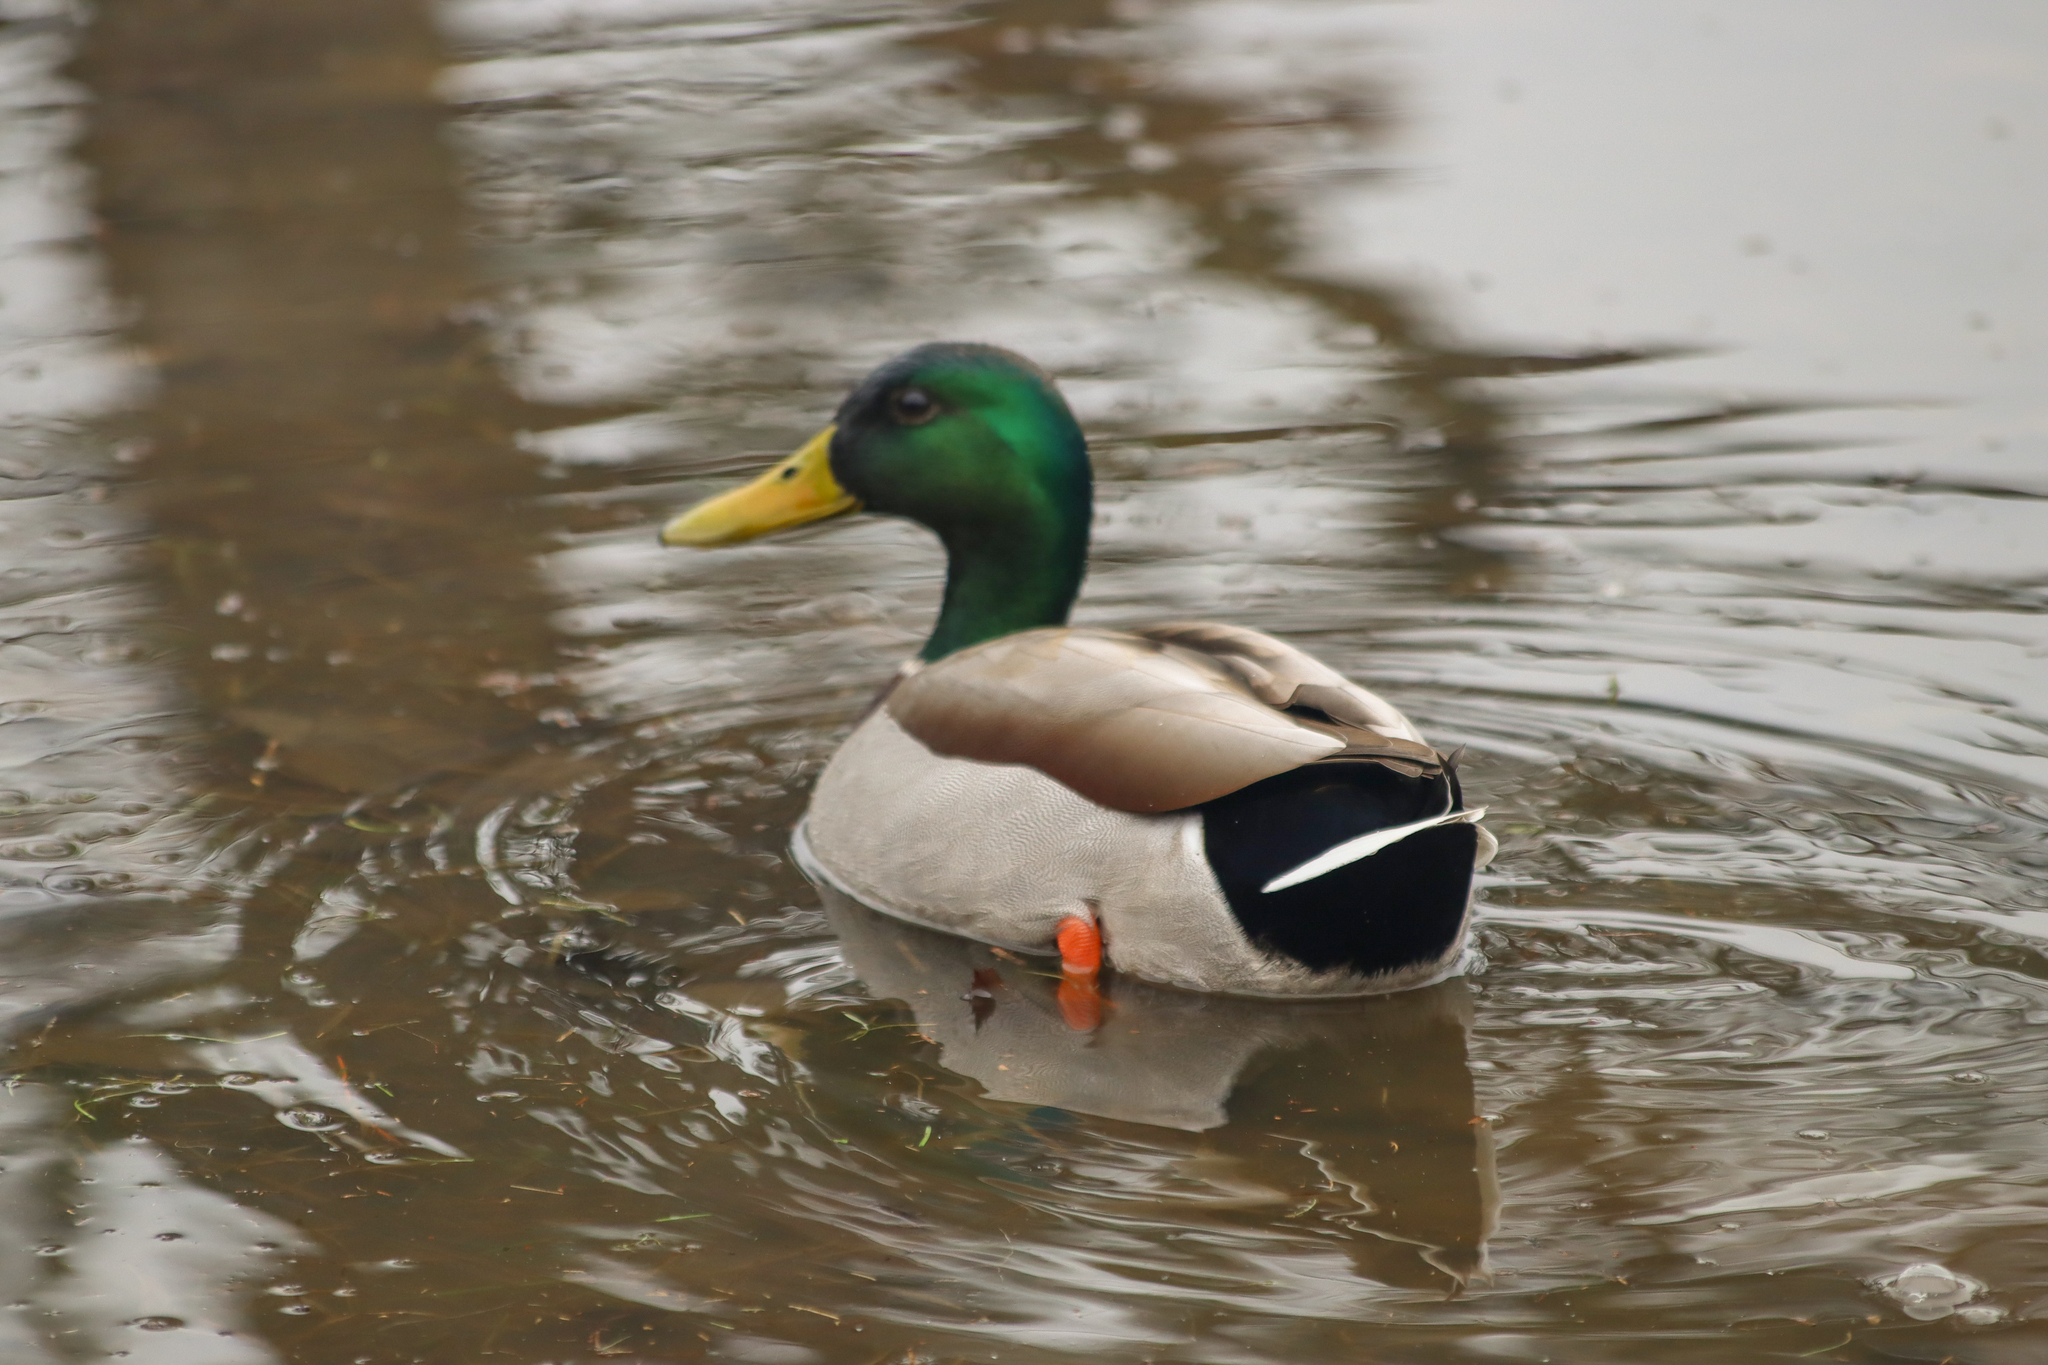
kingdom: Animalia
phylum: Chordata
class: Aves
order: Anseriformes
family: Anatidae
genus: Anas
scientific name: Anas platyrhynchos
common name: Mallard
